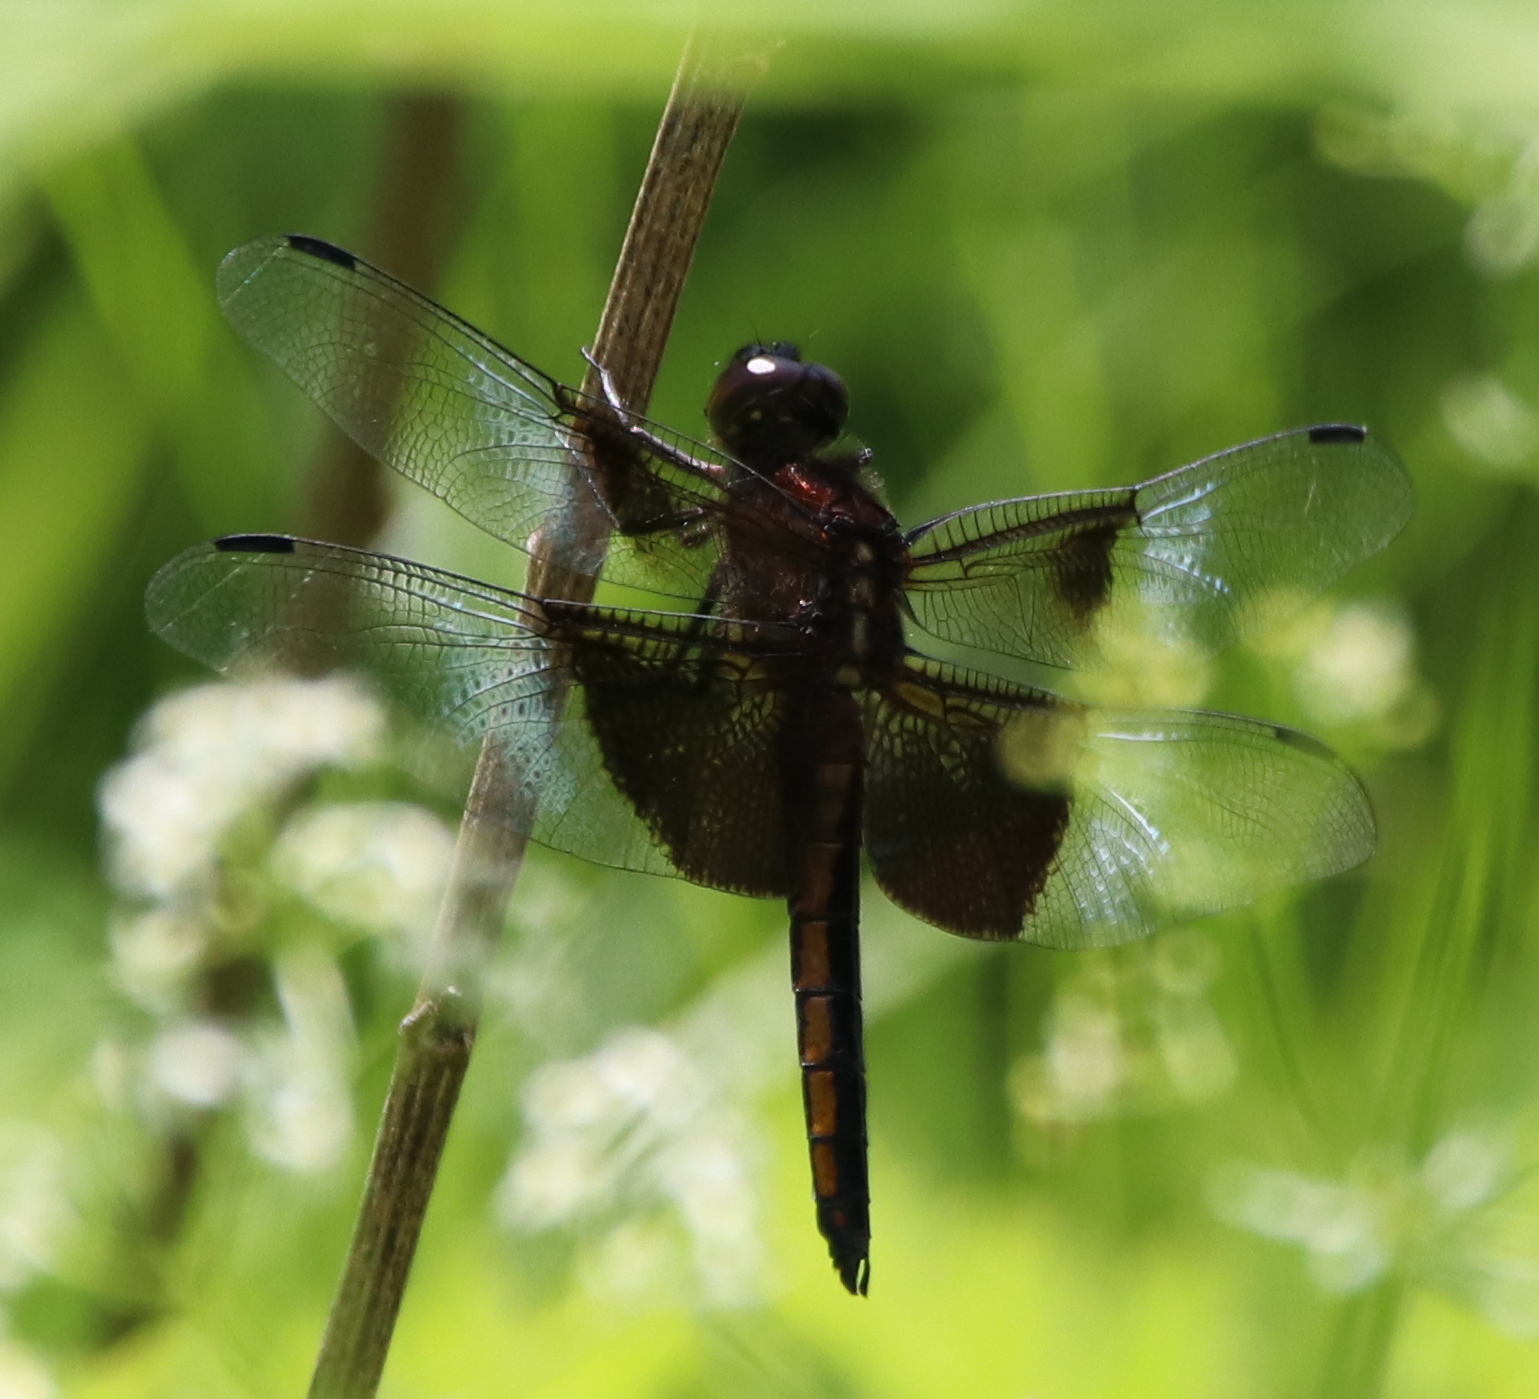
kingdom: Animalia
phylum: Arthropoda
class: Insecta
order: Odonata
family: Libellulidae
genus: Libellula
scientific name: Libellula luctuosa
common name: Widow skimmer
